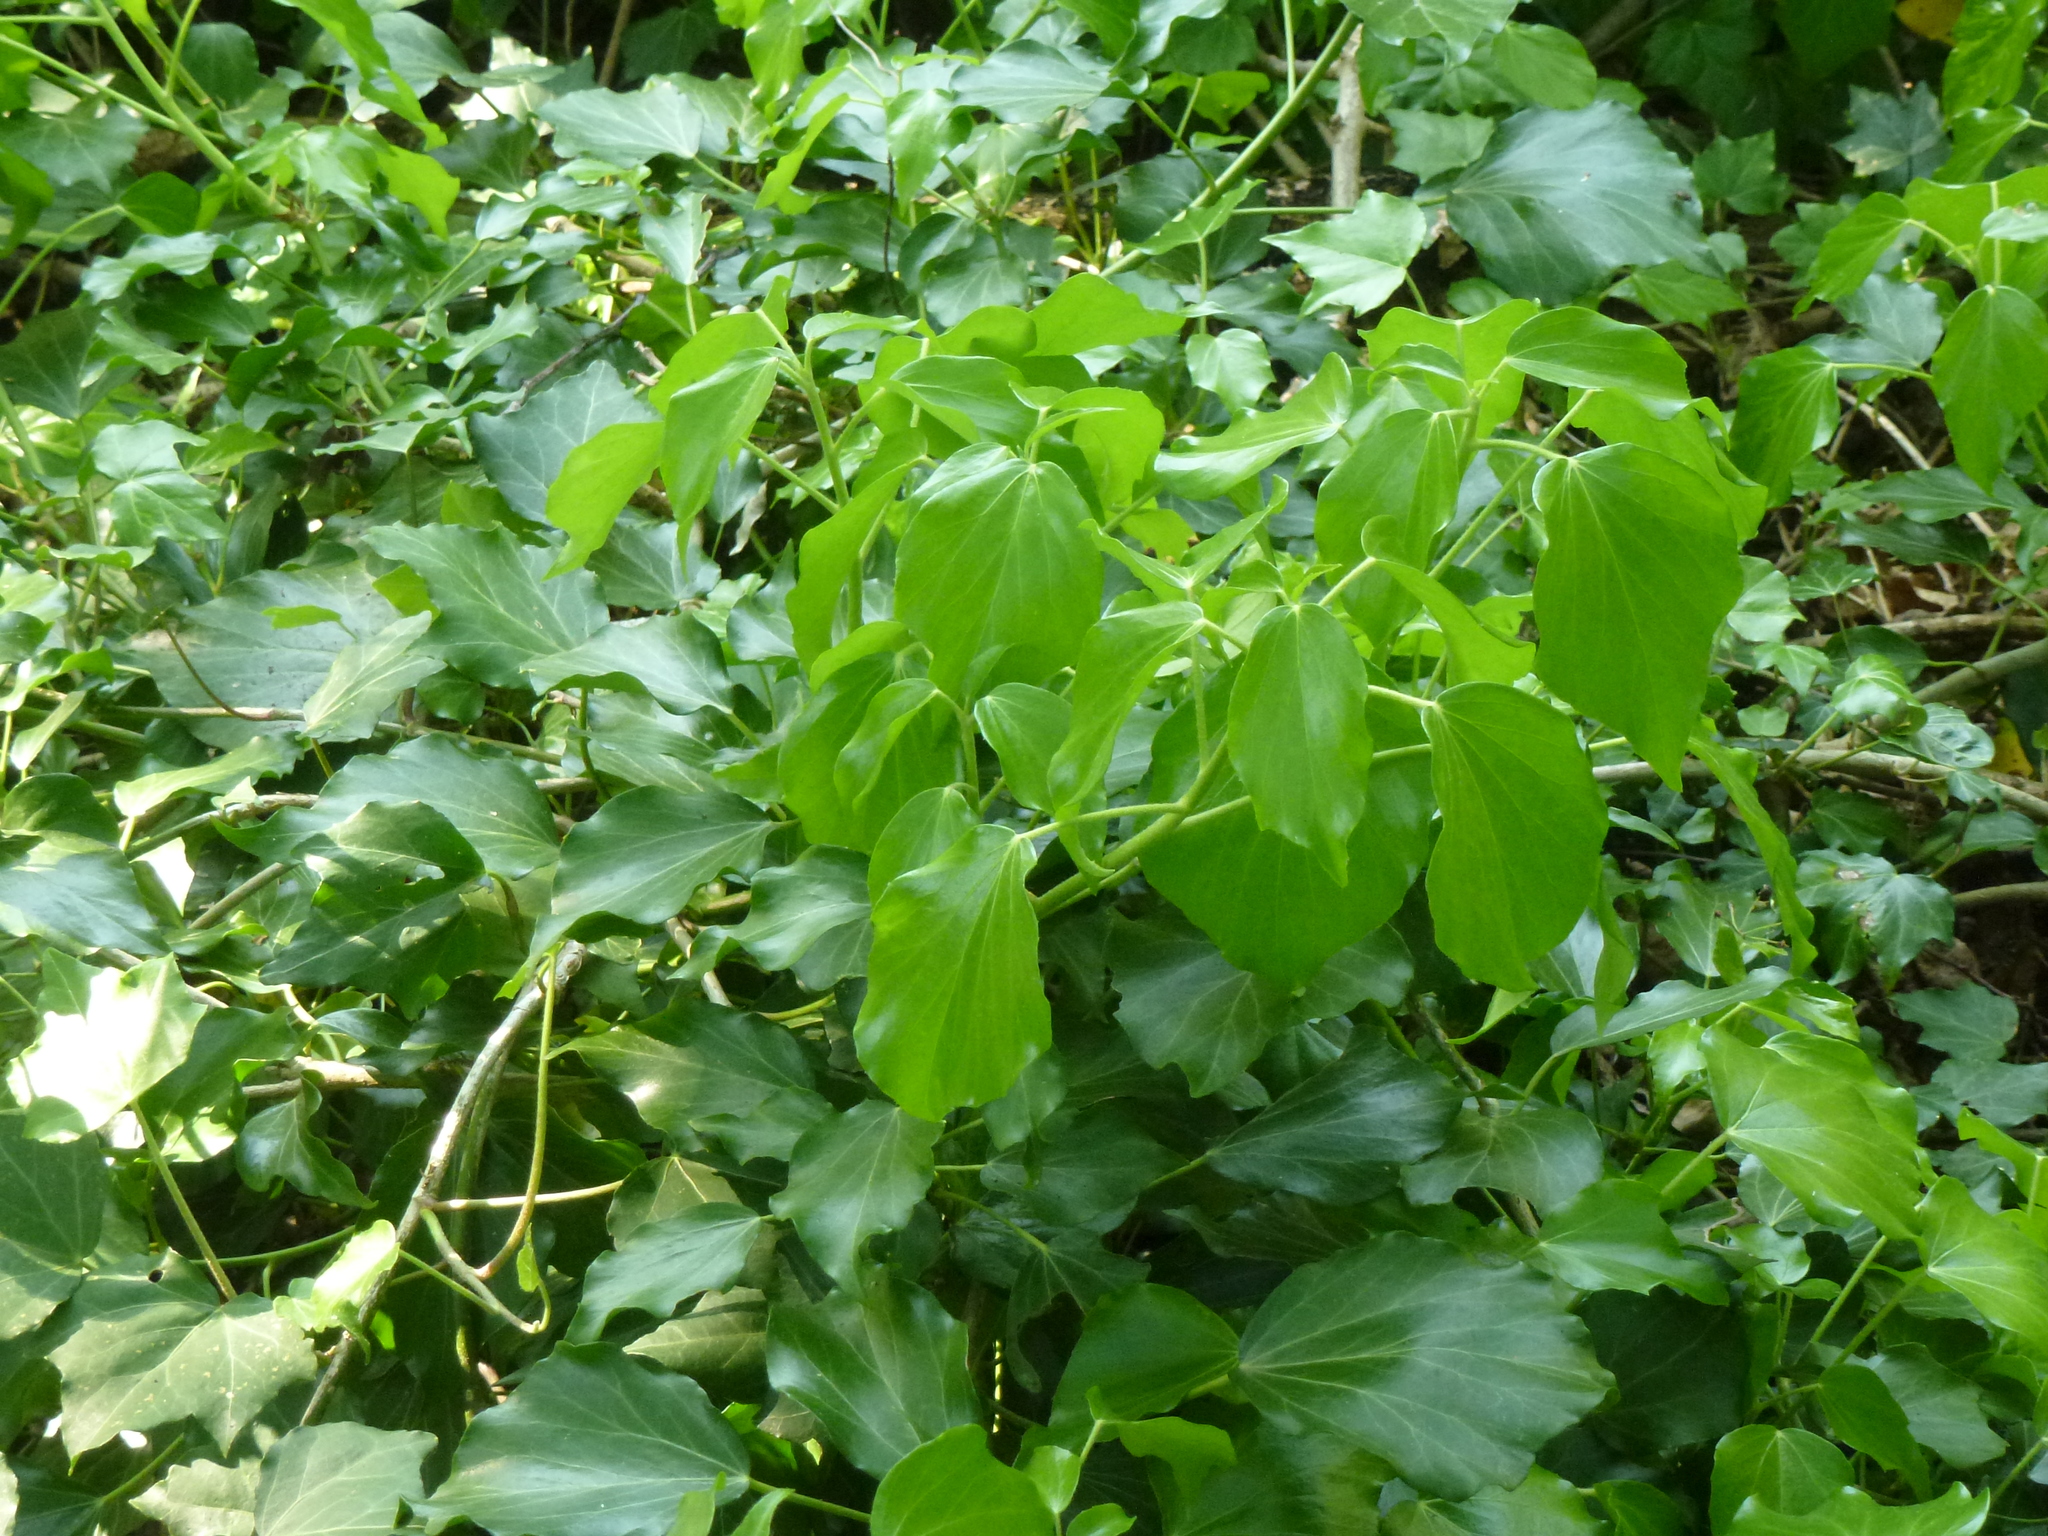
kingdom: Plantae
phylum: Tracheophyta
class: Magnoliopsida
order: Apiales
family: Araliaceae
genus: Hedera
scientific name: Hedera helix
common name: Ivy
